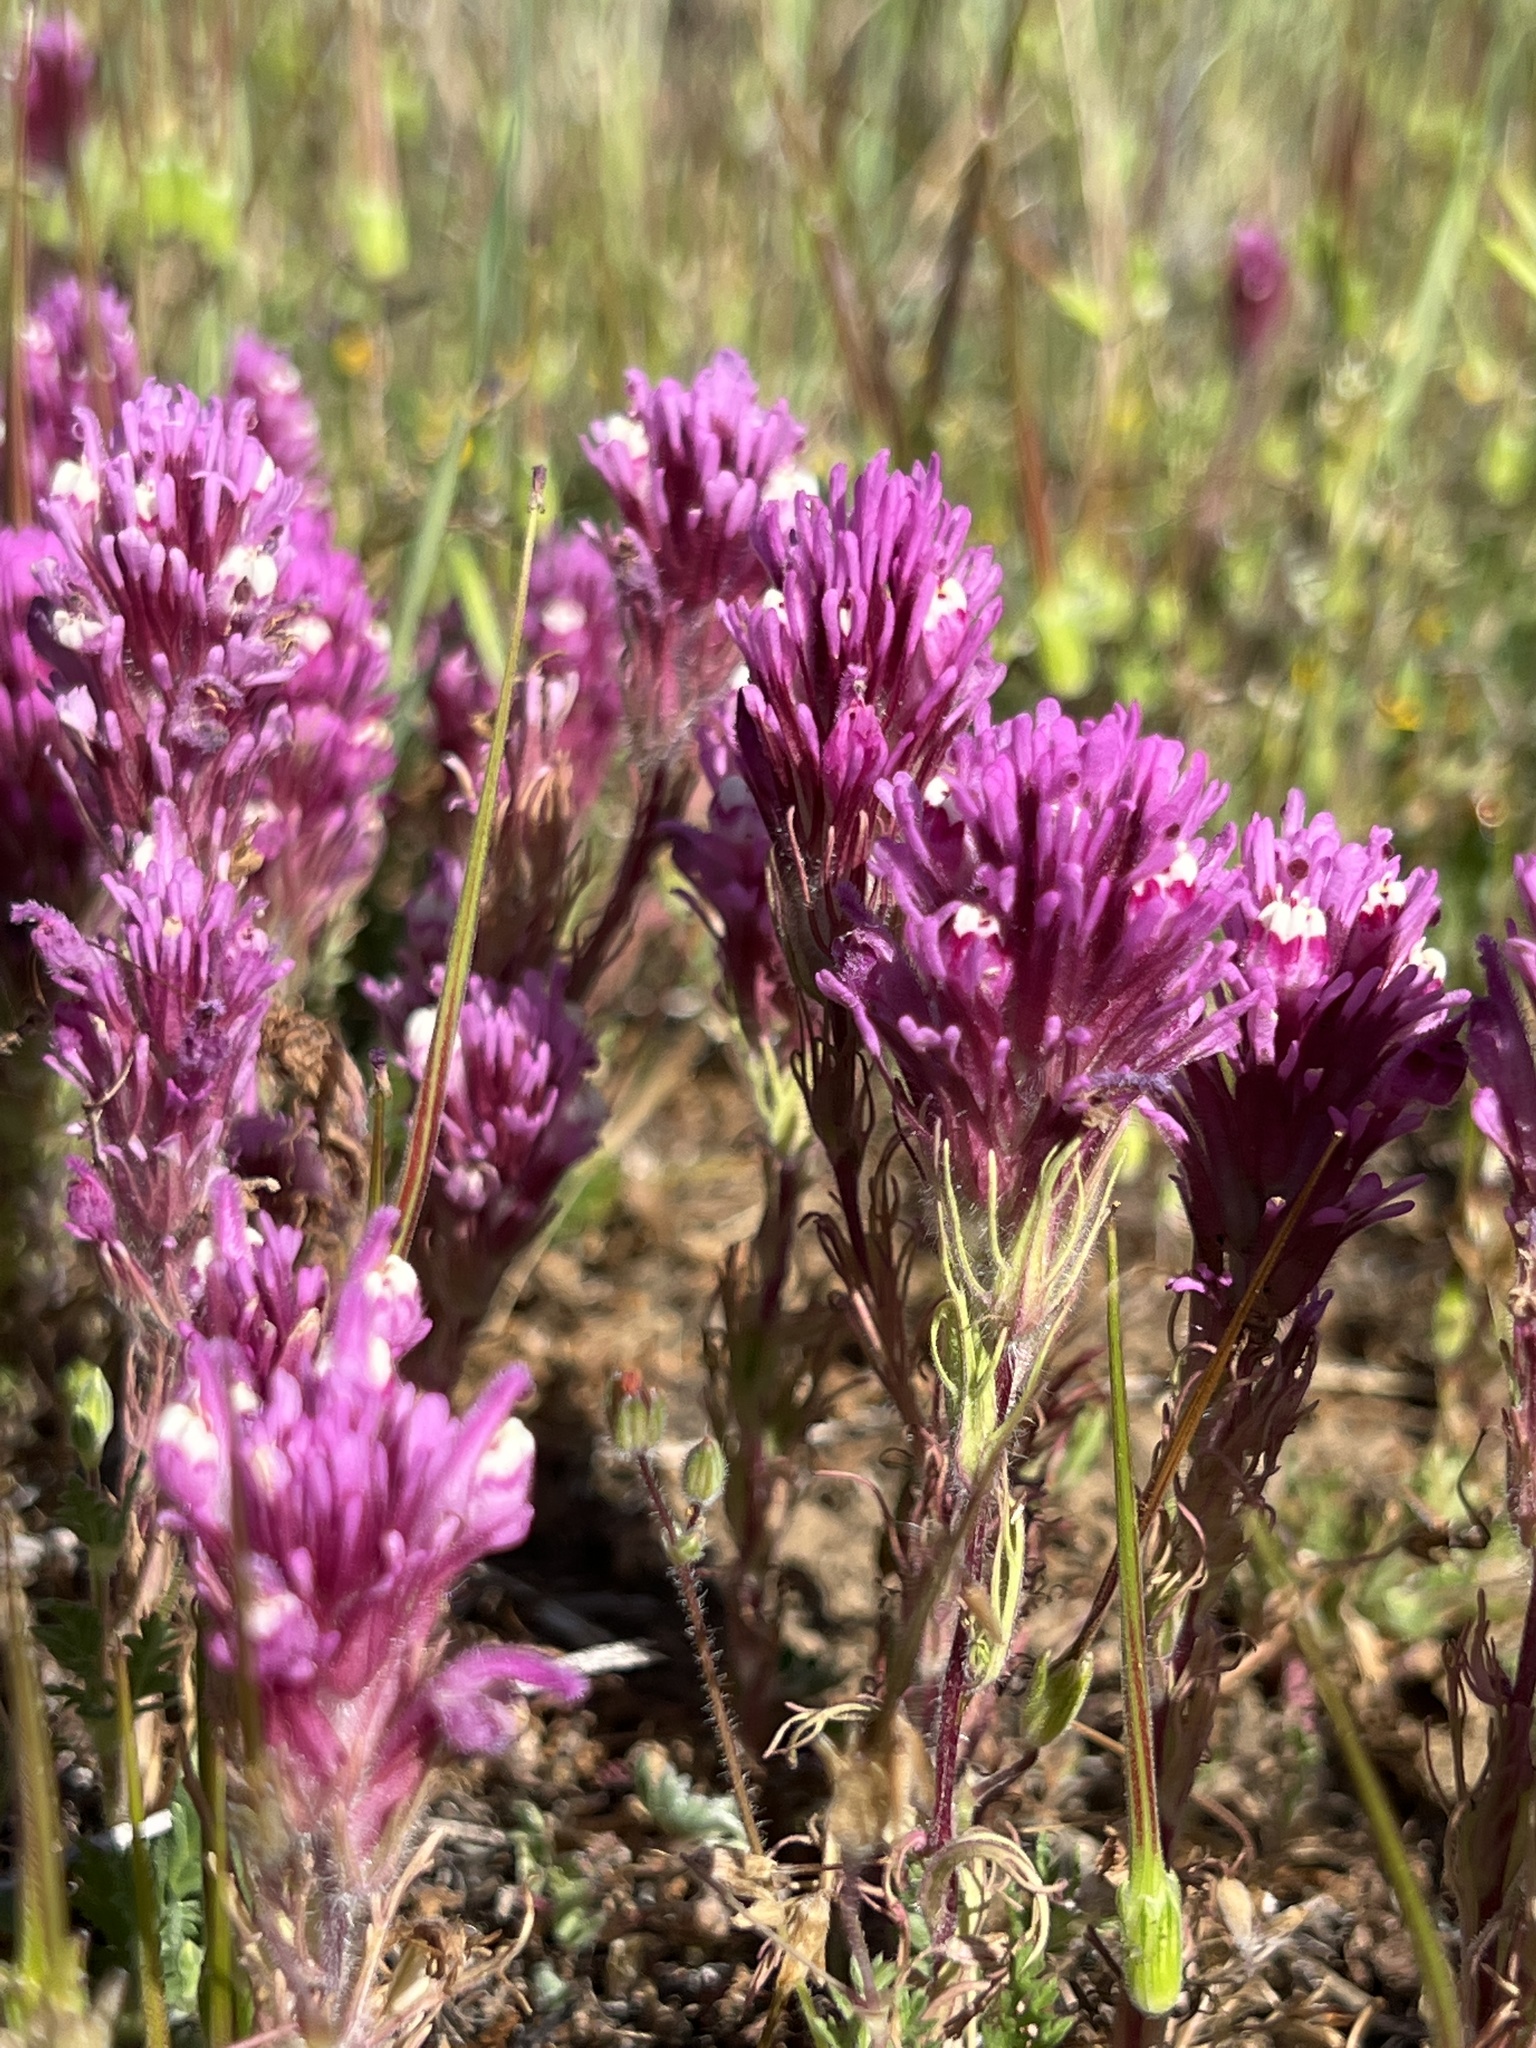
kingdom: Plantae
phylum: Tracheophyta
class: Magnoliopsida
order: Lamiales
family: Orobanchaceae
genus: Castilleja
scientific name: Castilleja exserta
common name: Purple owl-clover
